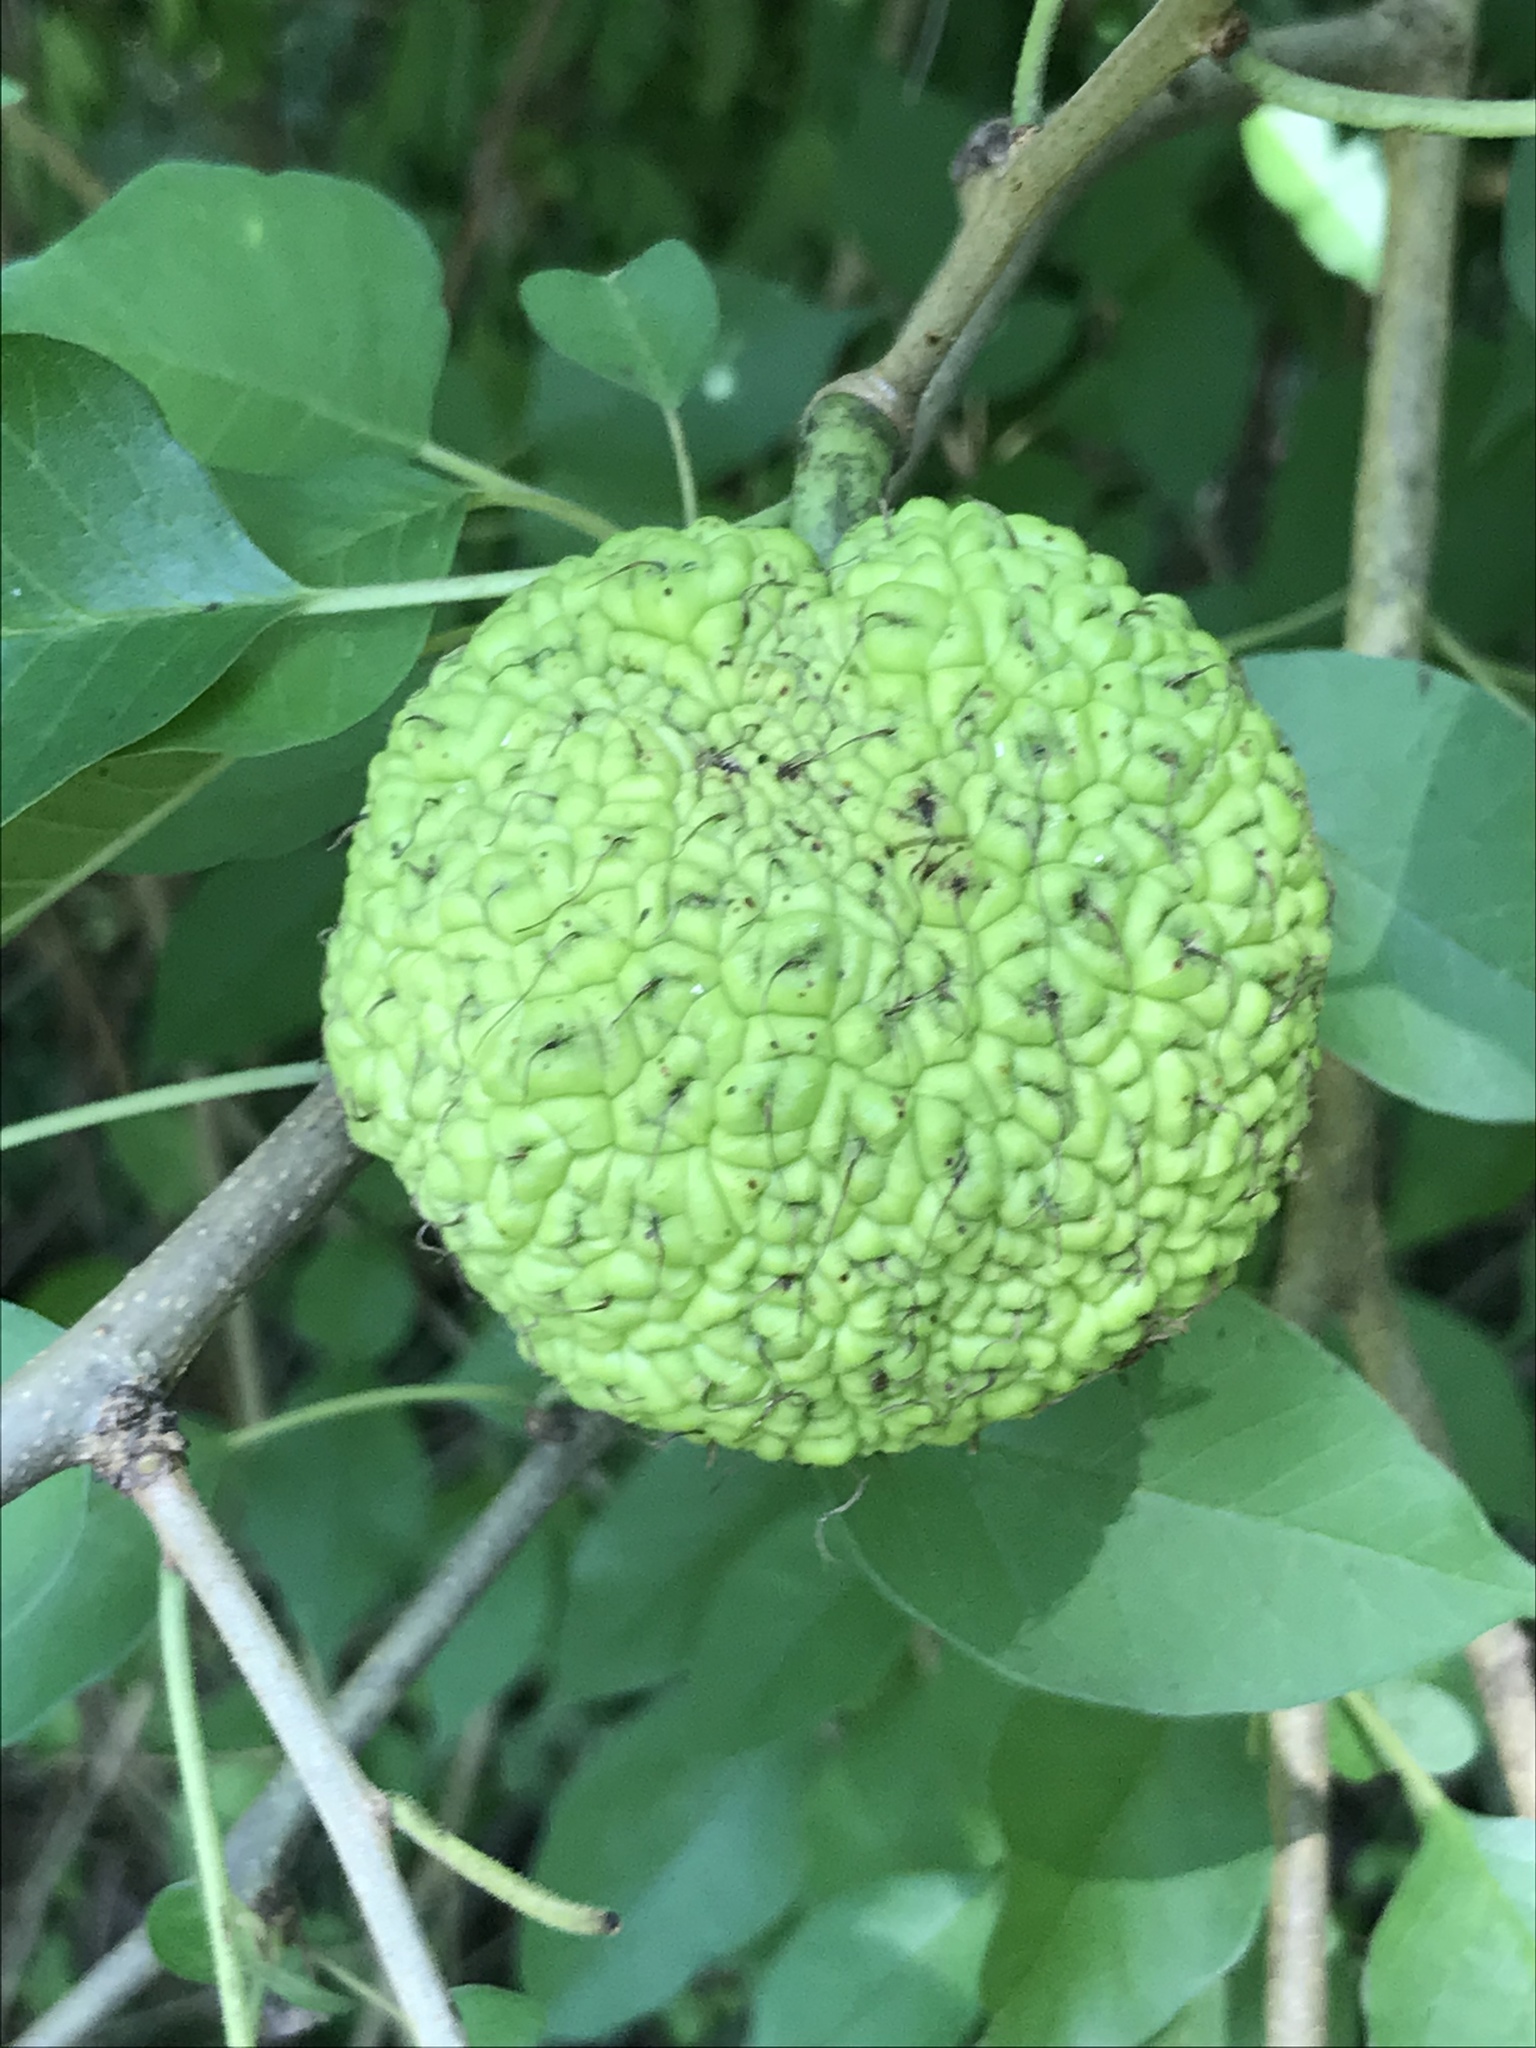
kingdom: Plantae
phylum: Tracheophyta
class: Magnoliopsida
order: Rosales
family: Moraceae
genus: Maclura
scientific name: Maclura pomifera
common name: Osage-orange
